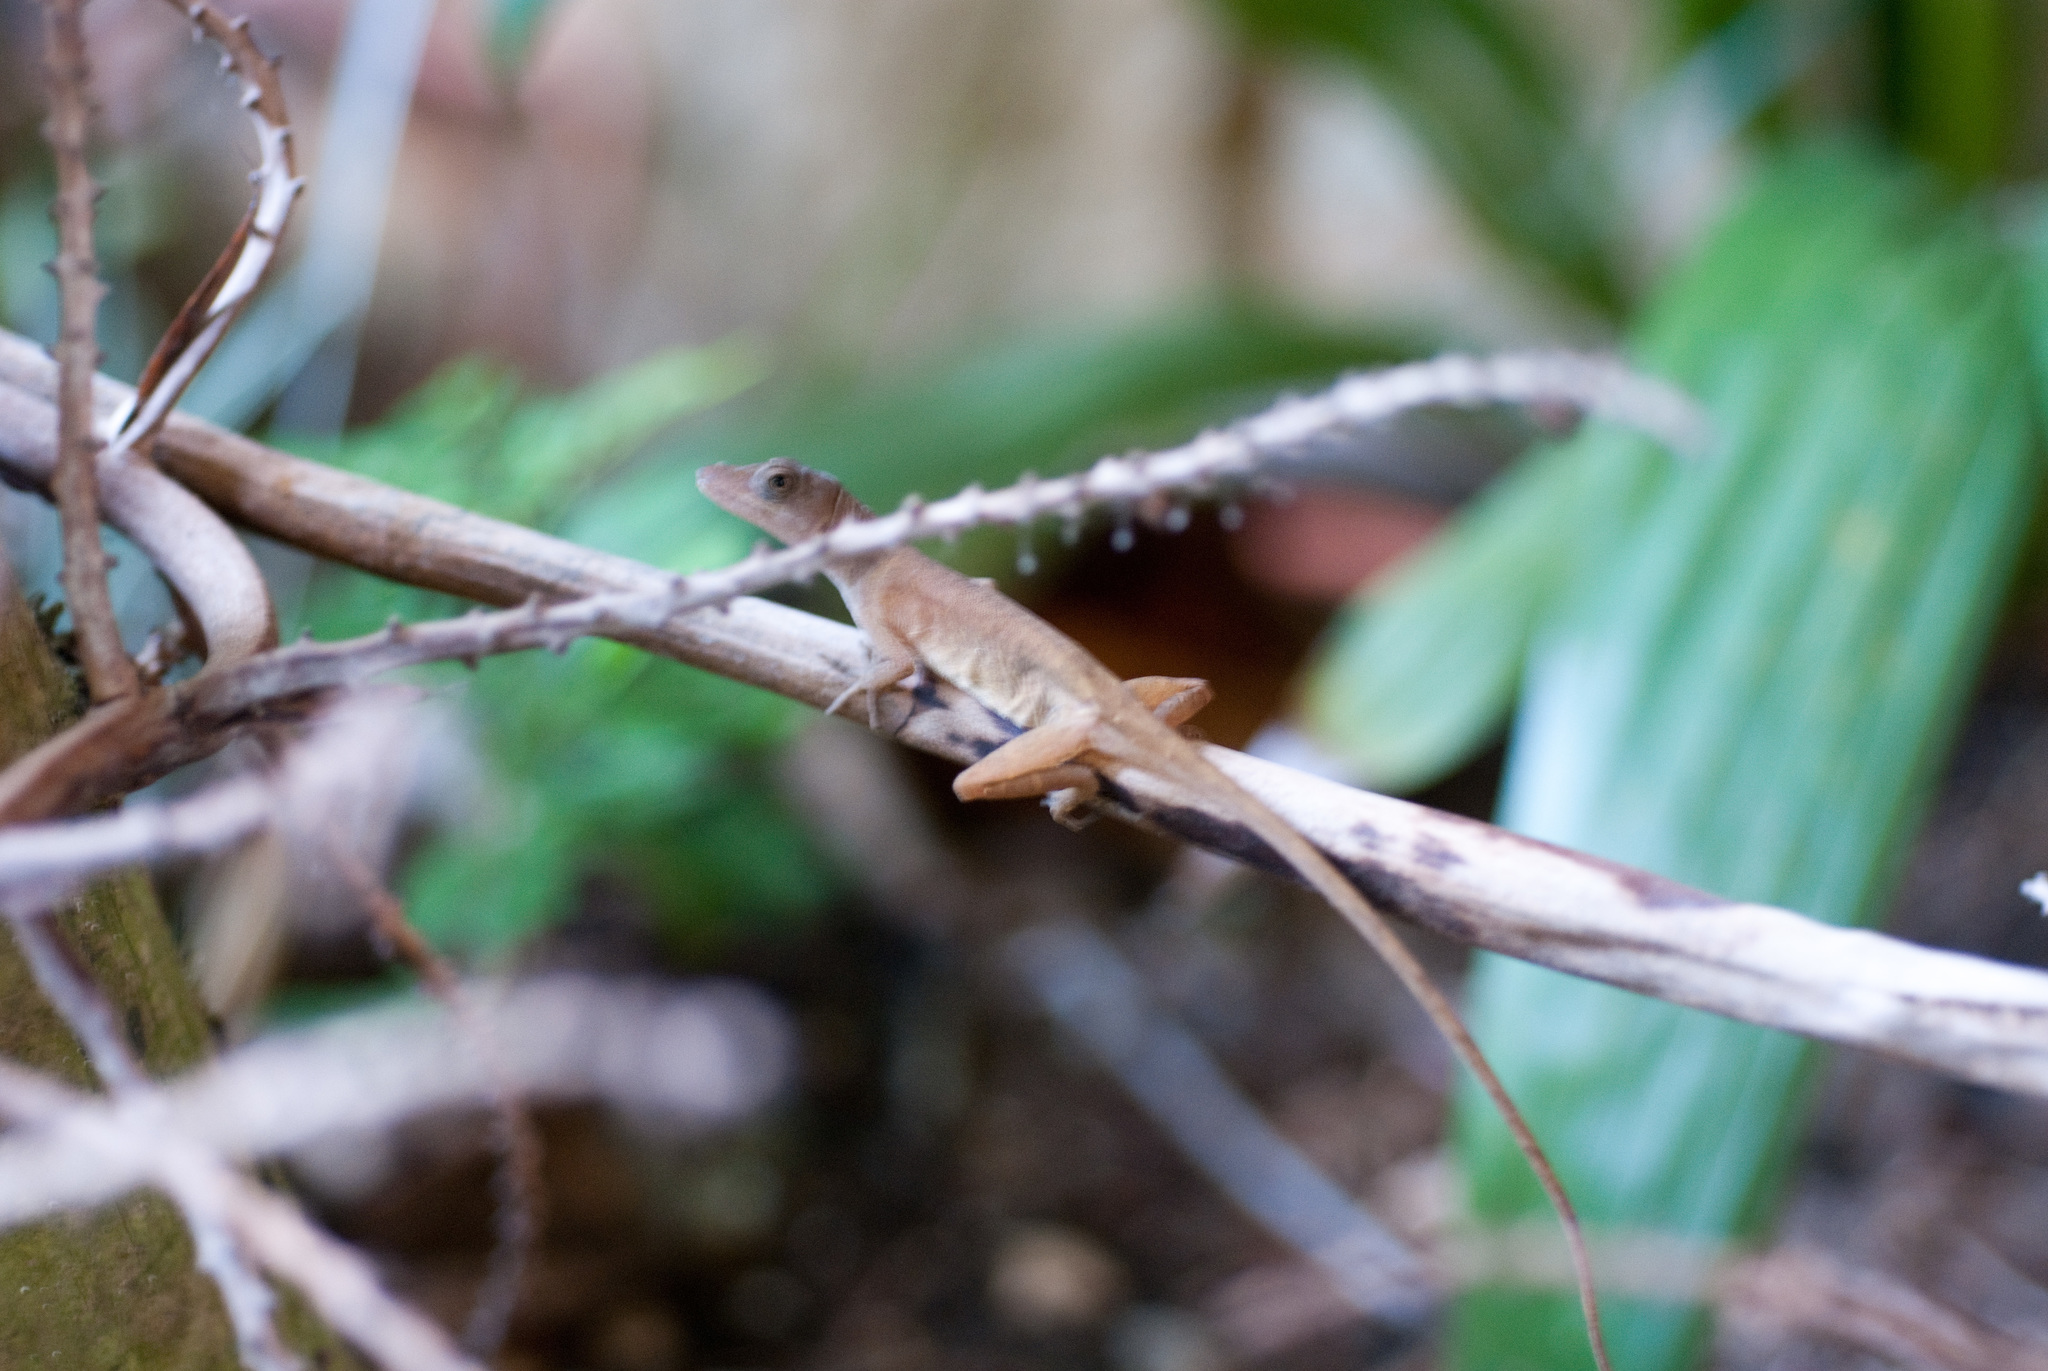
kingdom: Animalia
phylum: Chordata
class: Squamata
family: Dactyloidae
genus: Anolis
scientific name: Anolis cupreus
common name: Copper anole
